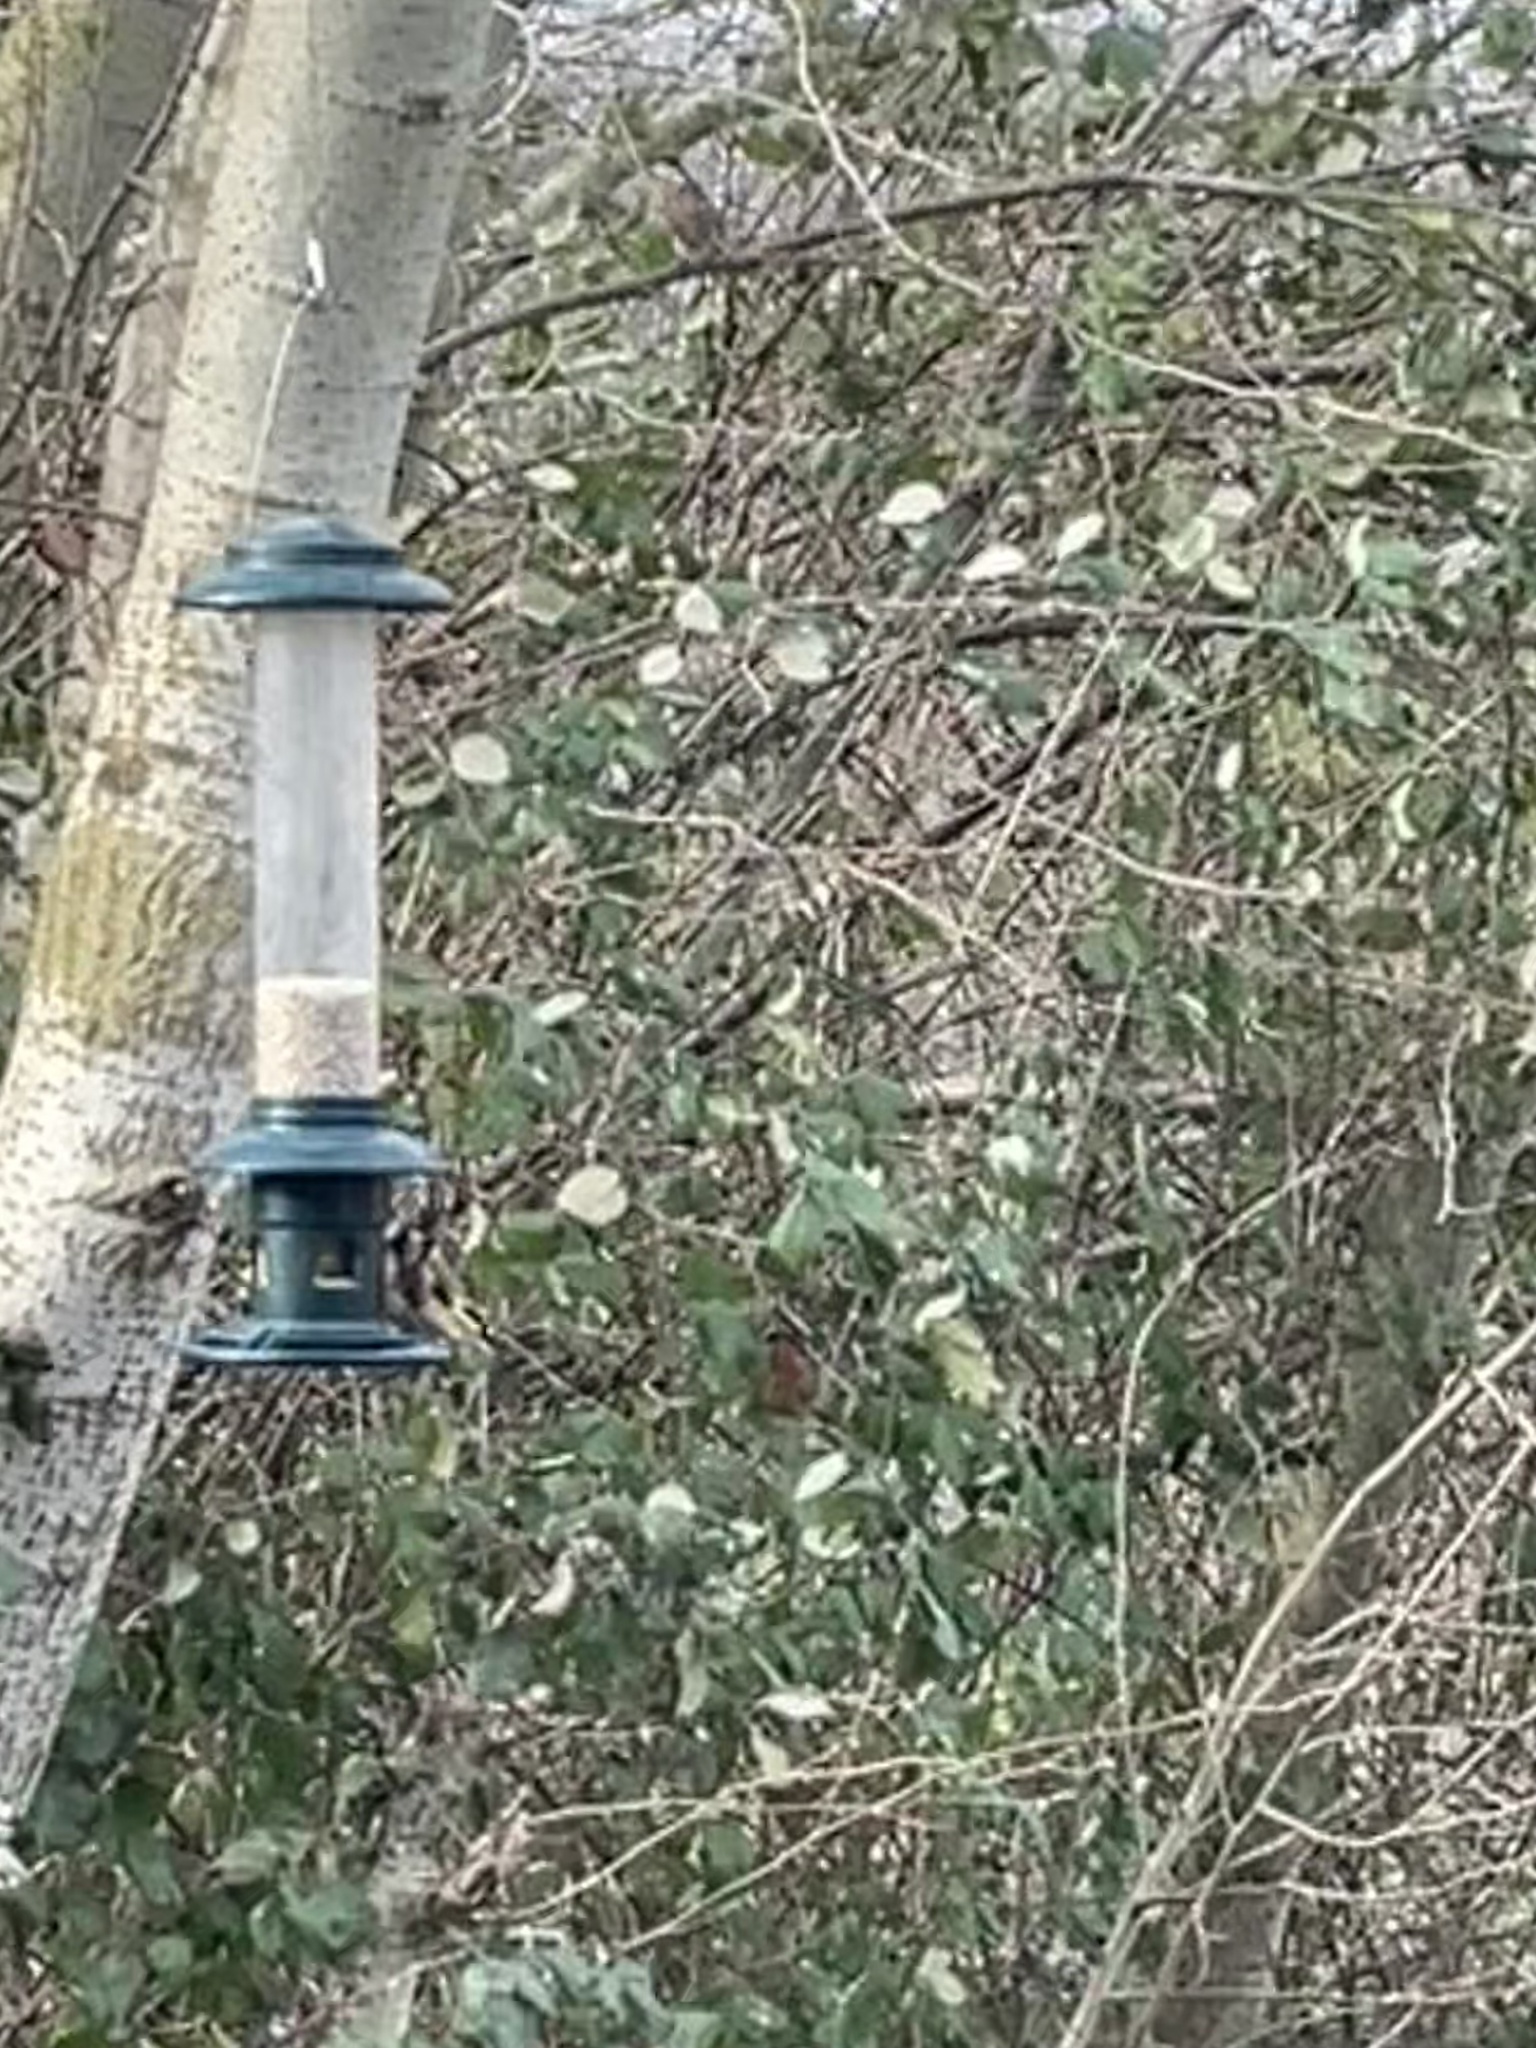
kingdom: Animalia
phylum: Chordata
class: Aves
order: Passeriformes
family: Fringillidae
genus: Carduelis
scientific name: Carduelis carduelis
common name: European goldfinch
